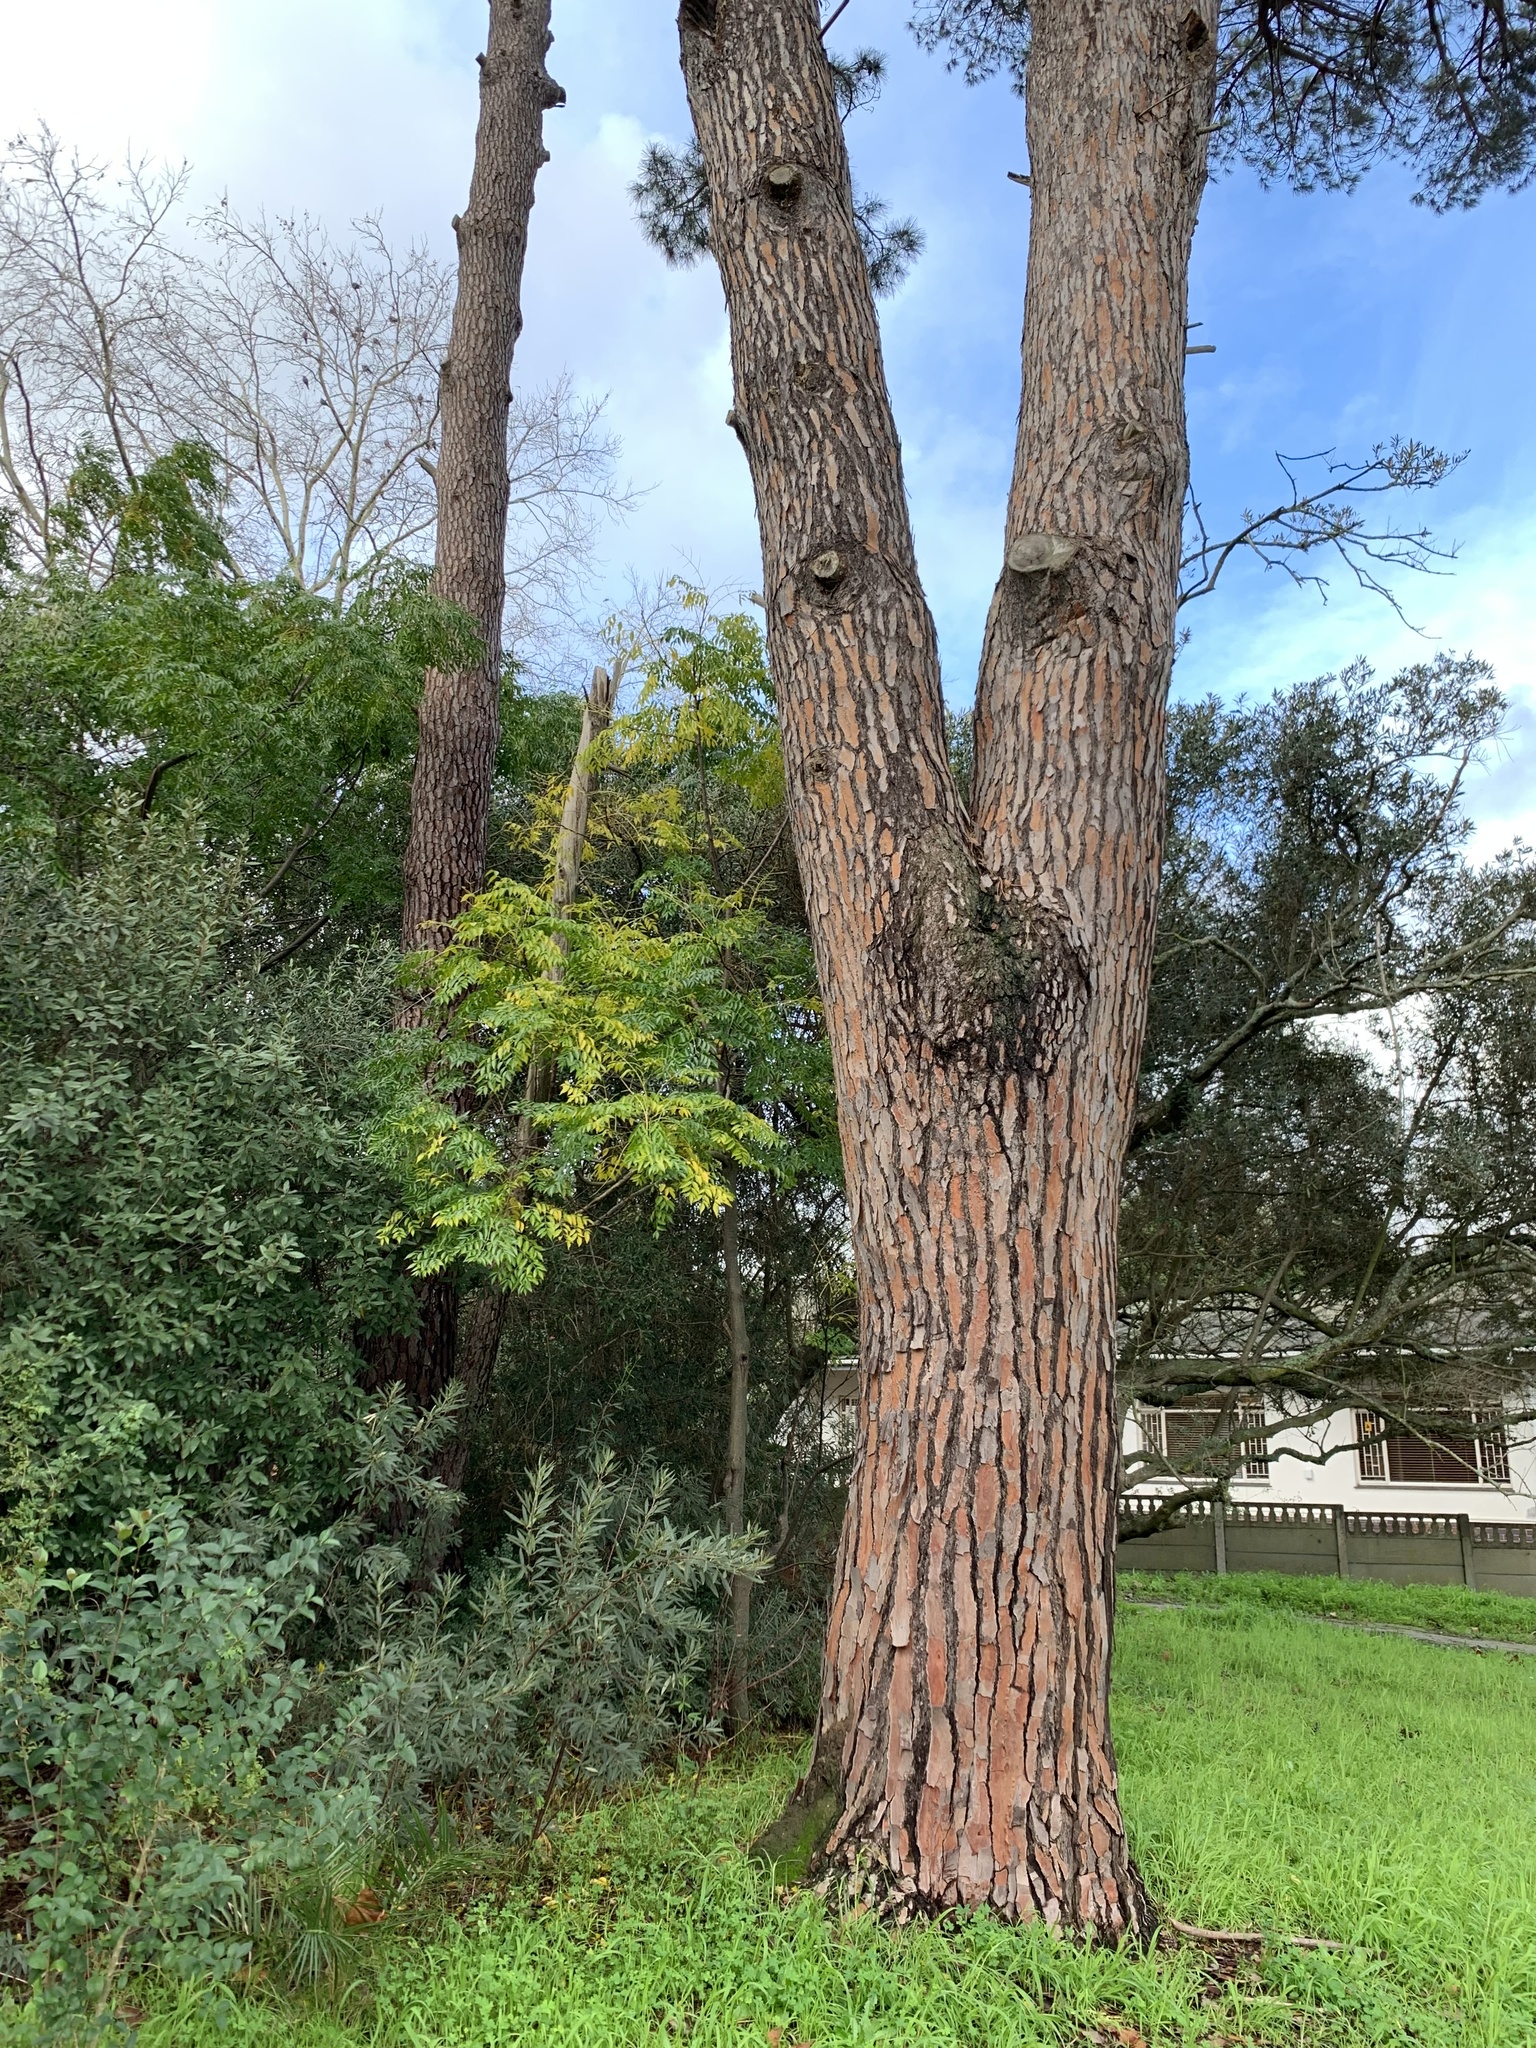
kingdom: Plantae
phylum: Tracheophyta
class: Magnoliopsida
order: Sapindales
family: Meliaceae
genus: Melia
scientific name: Melia azedarach
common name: Chinaberrytree
